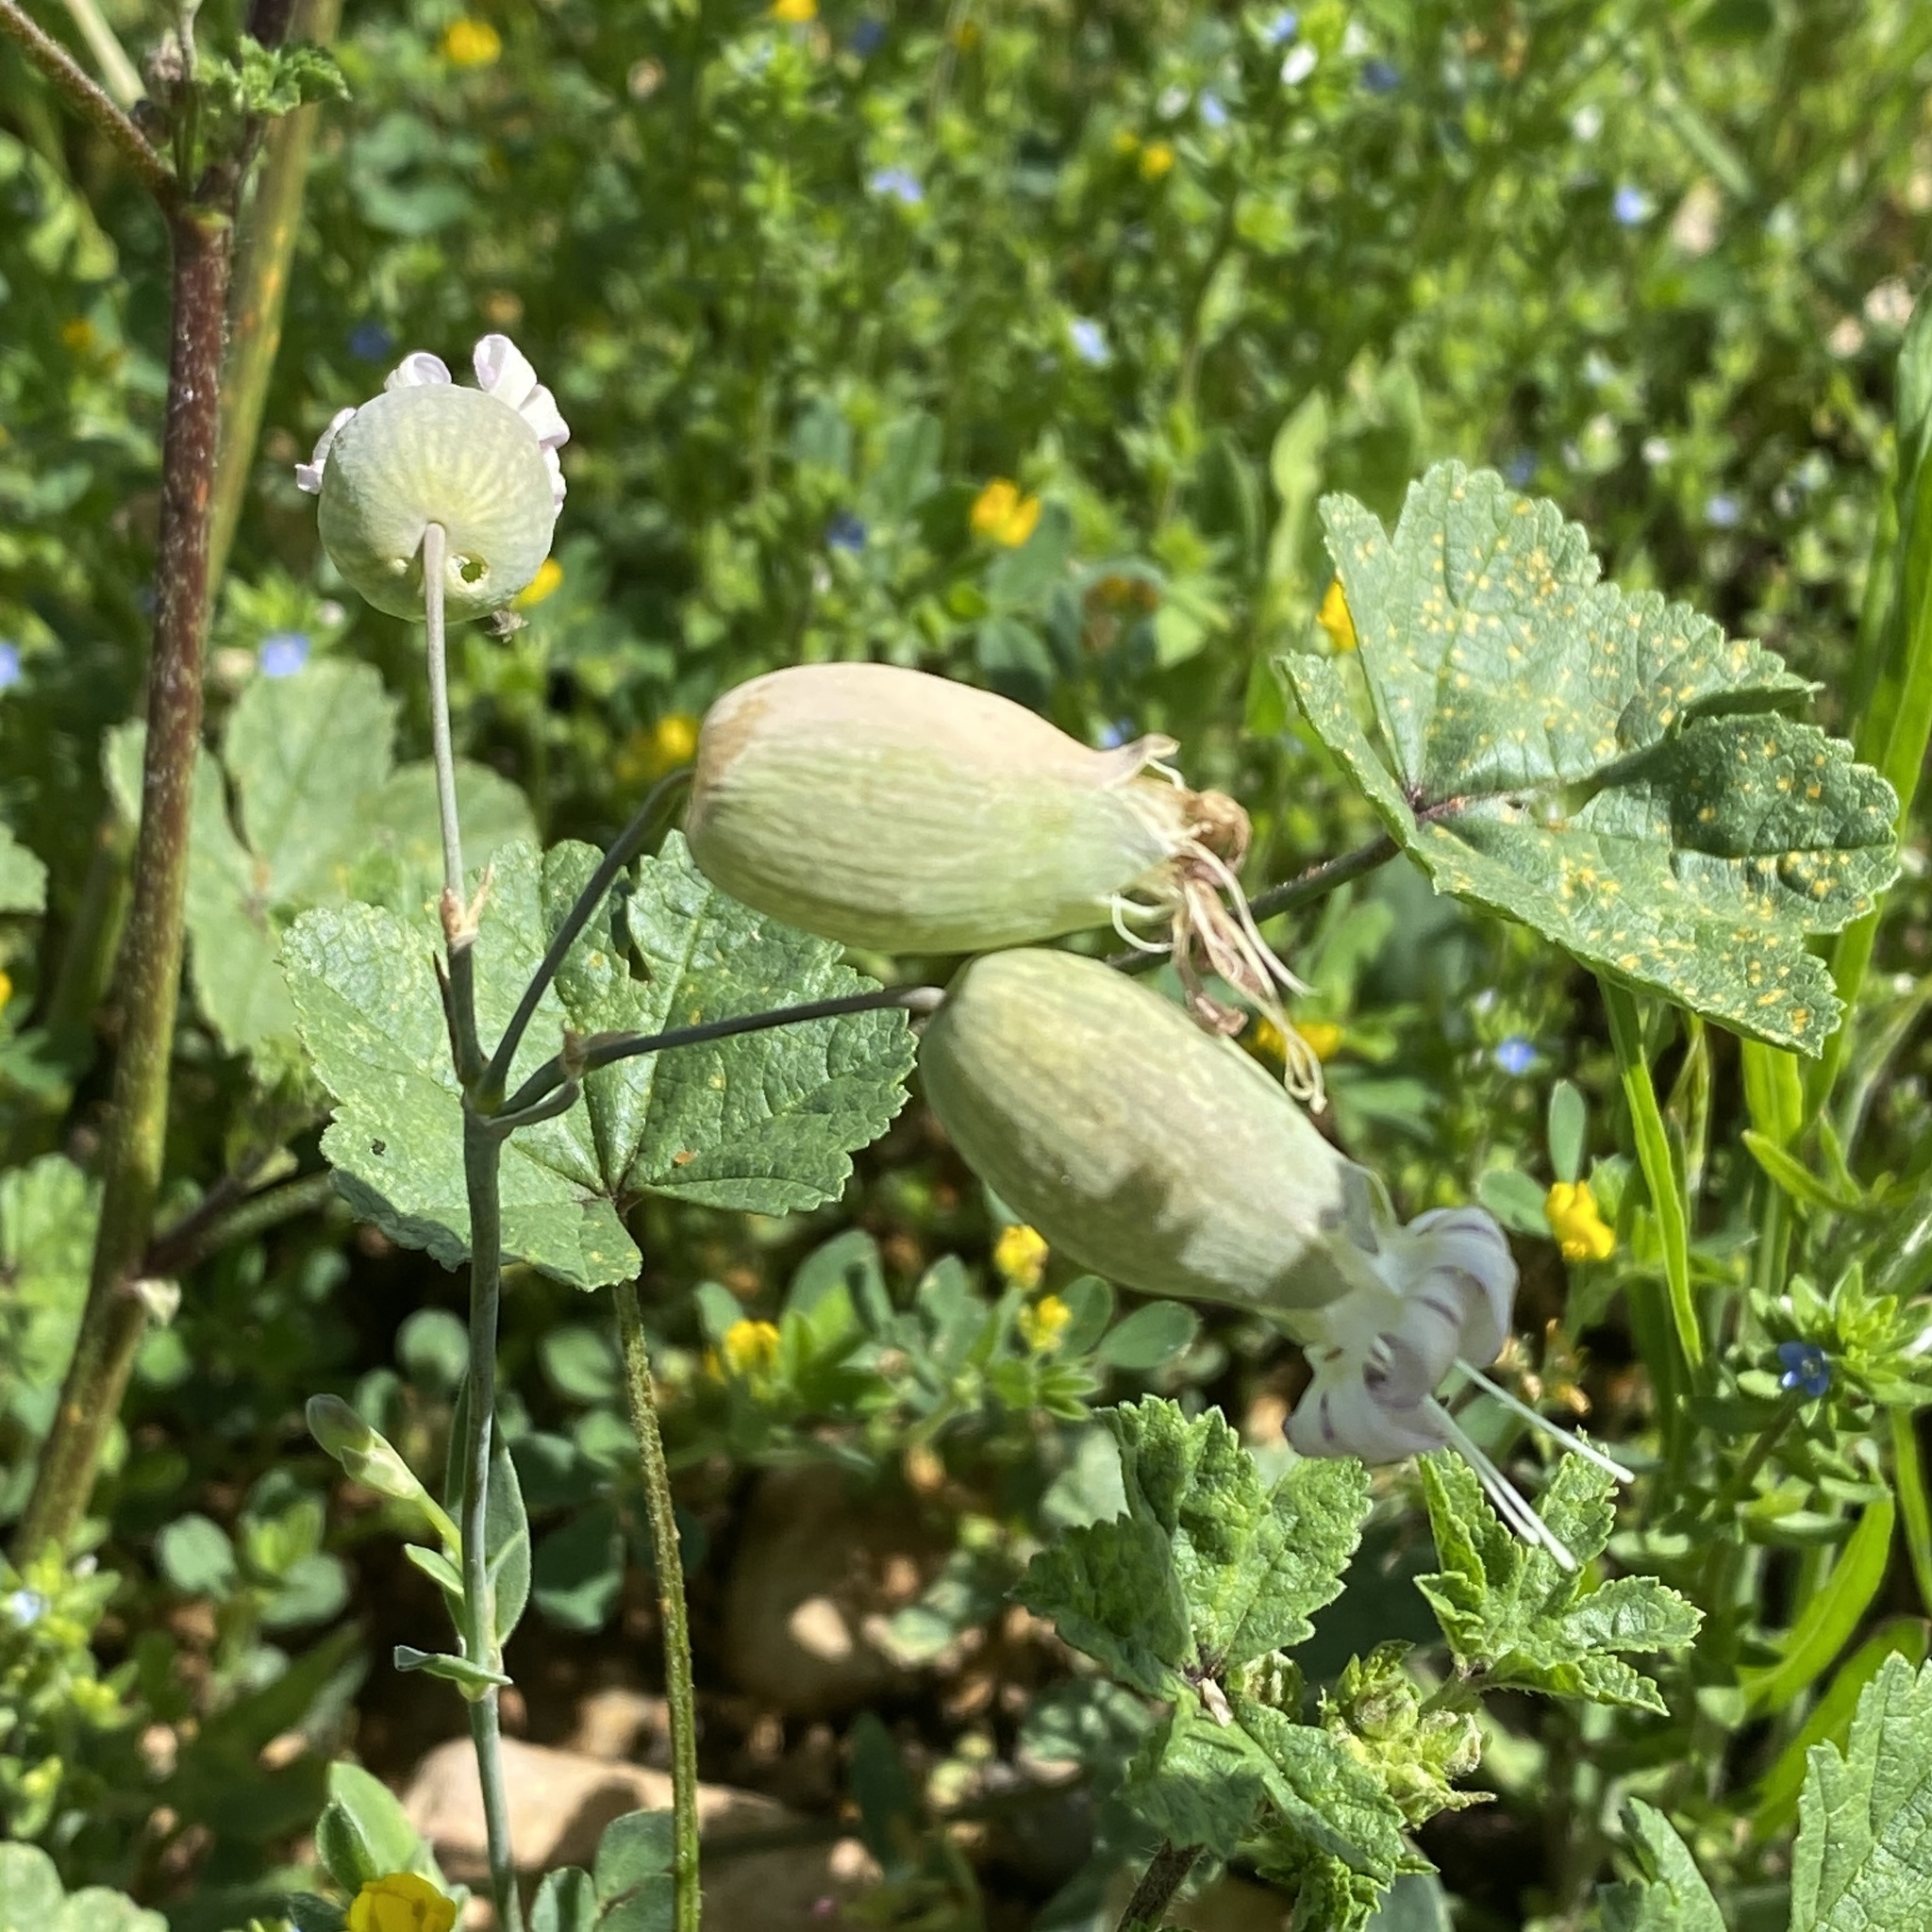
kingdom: Plantae
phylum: Tracheophyta
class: Magnoliopsida
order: Caryophyllales
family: Caryophyllaceae
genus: Silene
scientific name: Silene vulgaris
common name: Bladder campion
